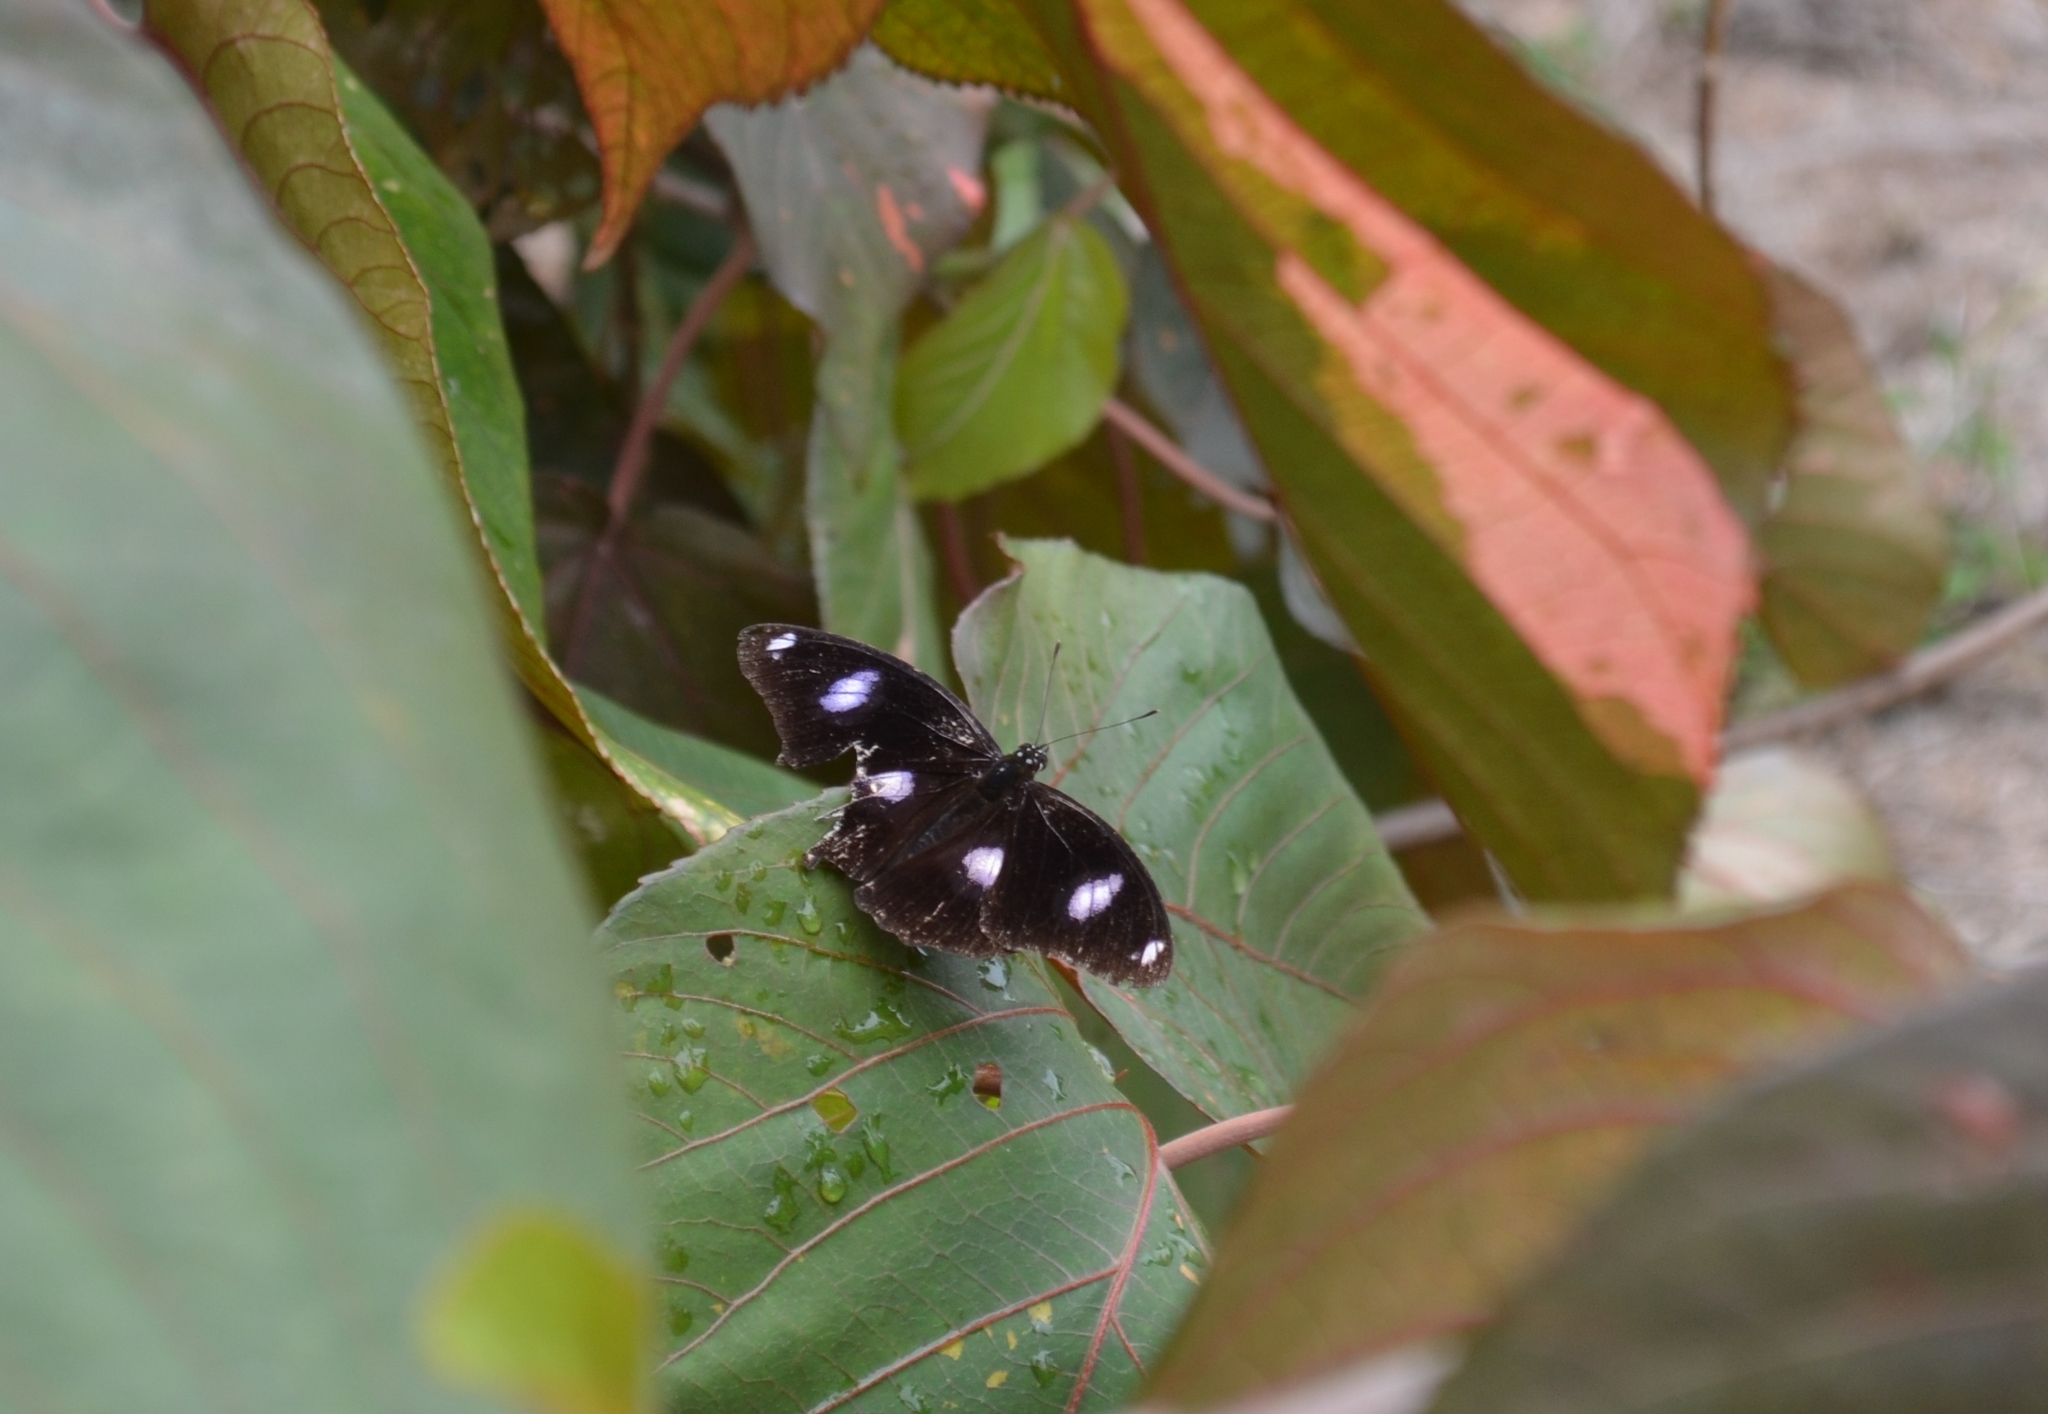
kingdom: Animalia
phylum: Arthropoda
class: Insecta
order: Lepidoptera
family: Nymphalidae
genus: Hypolimnas
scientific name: Hypolimnas bolina
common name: Great eggfly
